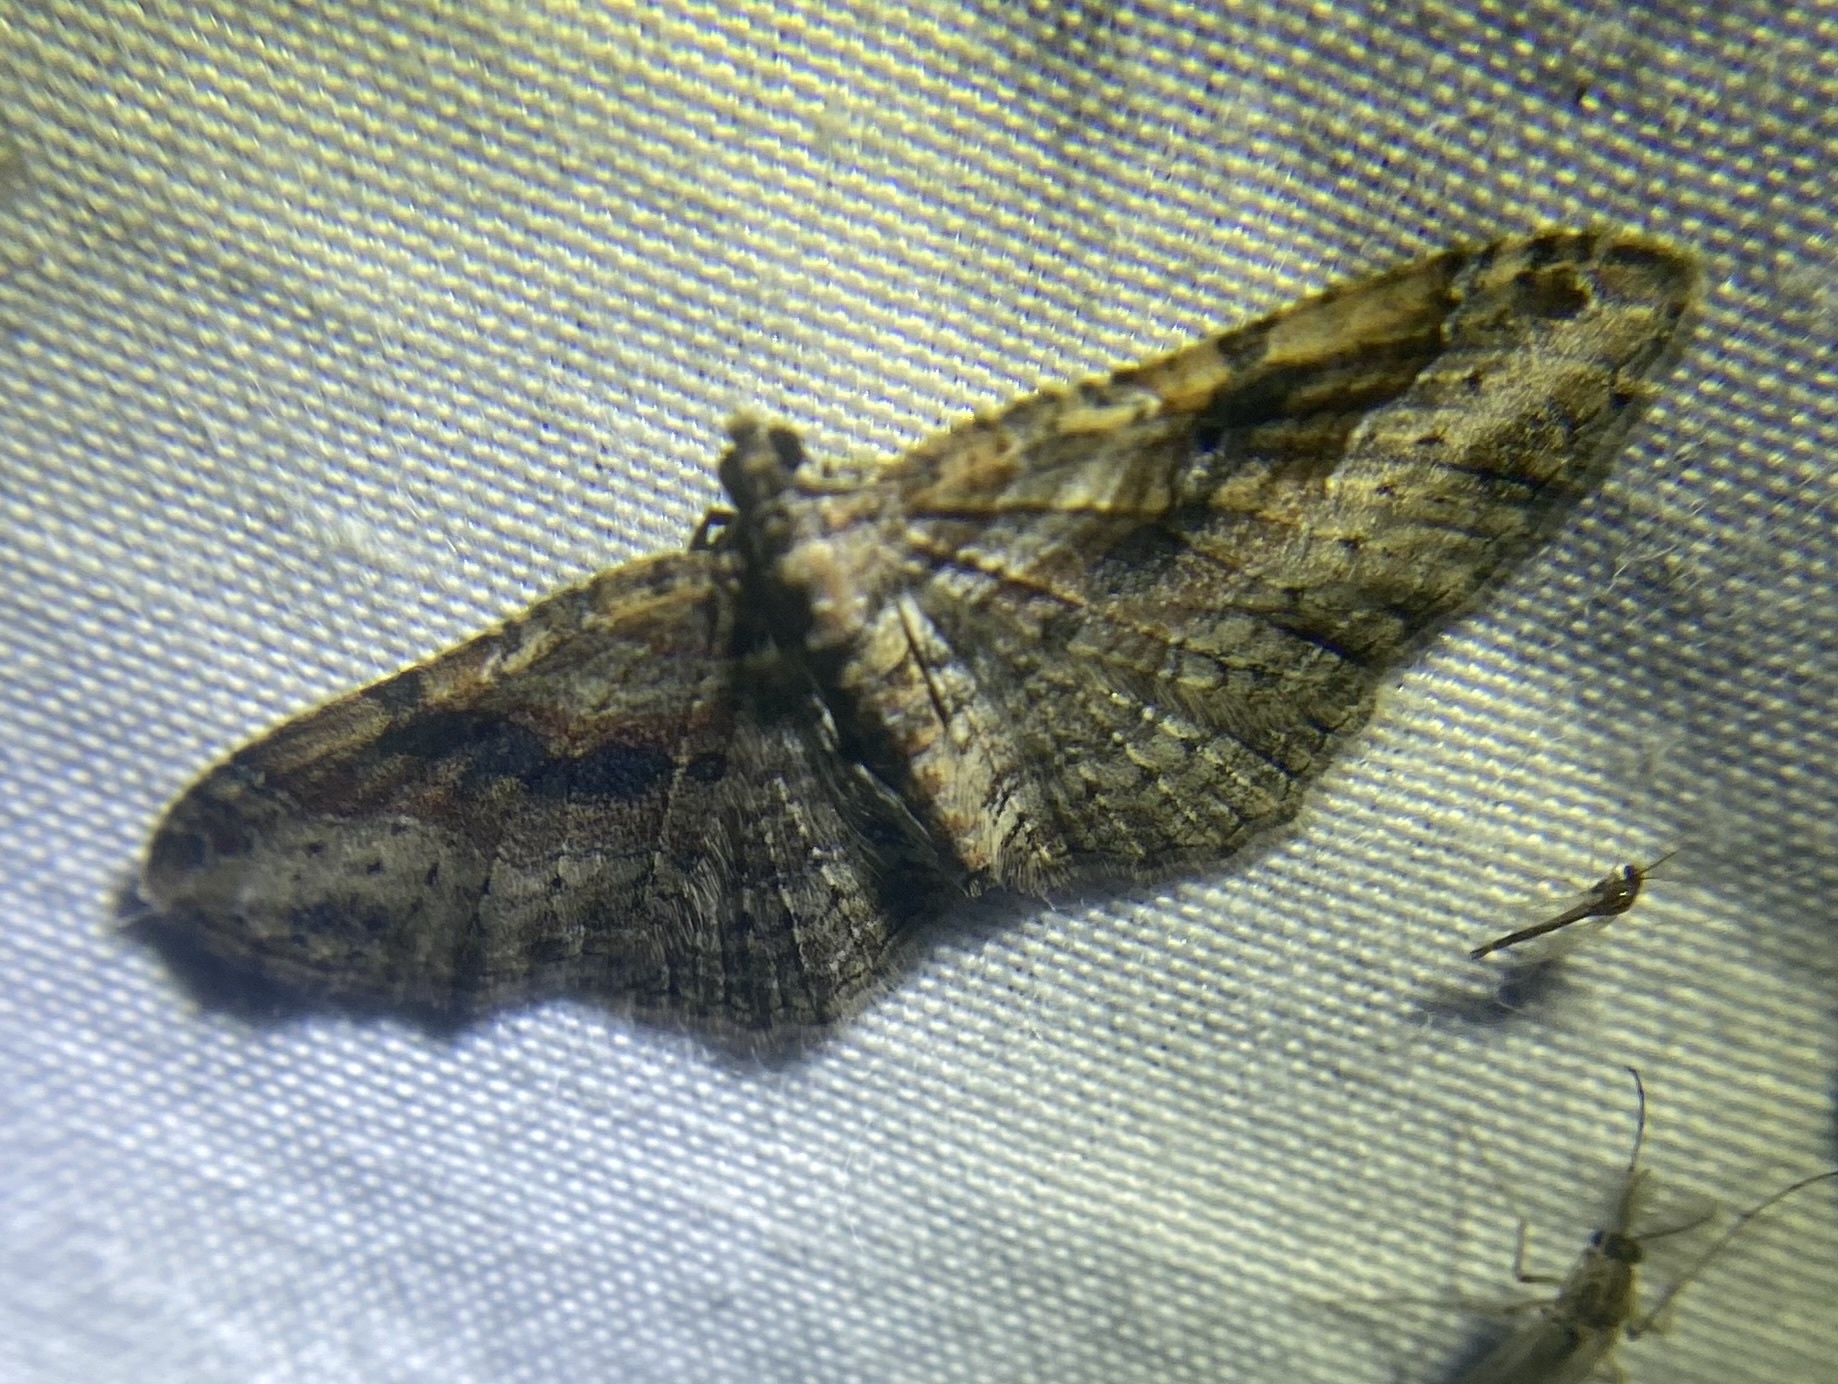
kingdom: Animalia
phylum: Arthropoda
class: Insecta
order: Lepidoptera
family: Geometridae
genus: Costaconvexa
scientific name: Costaconvexa centrostrigaria
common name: Bent-line carpet
